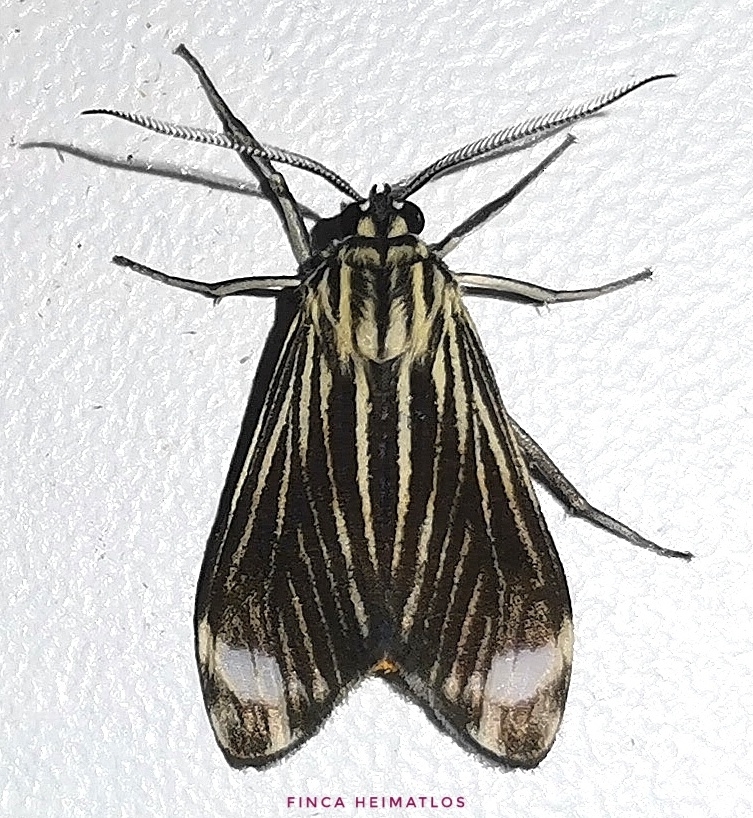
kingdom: Animalia
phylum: Arthropoda
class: Insecta
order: Lepidoptera
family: Erebidae
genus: Hyaleucerea
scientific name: Hyaleucerea costinotata
